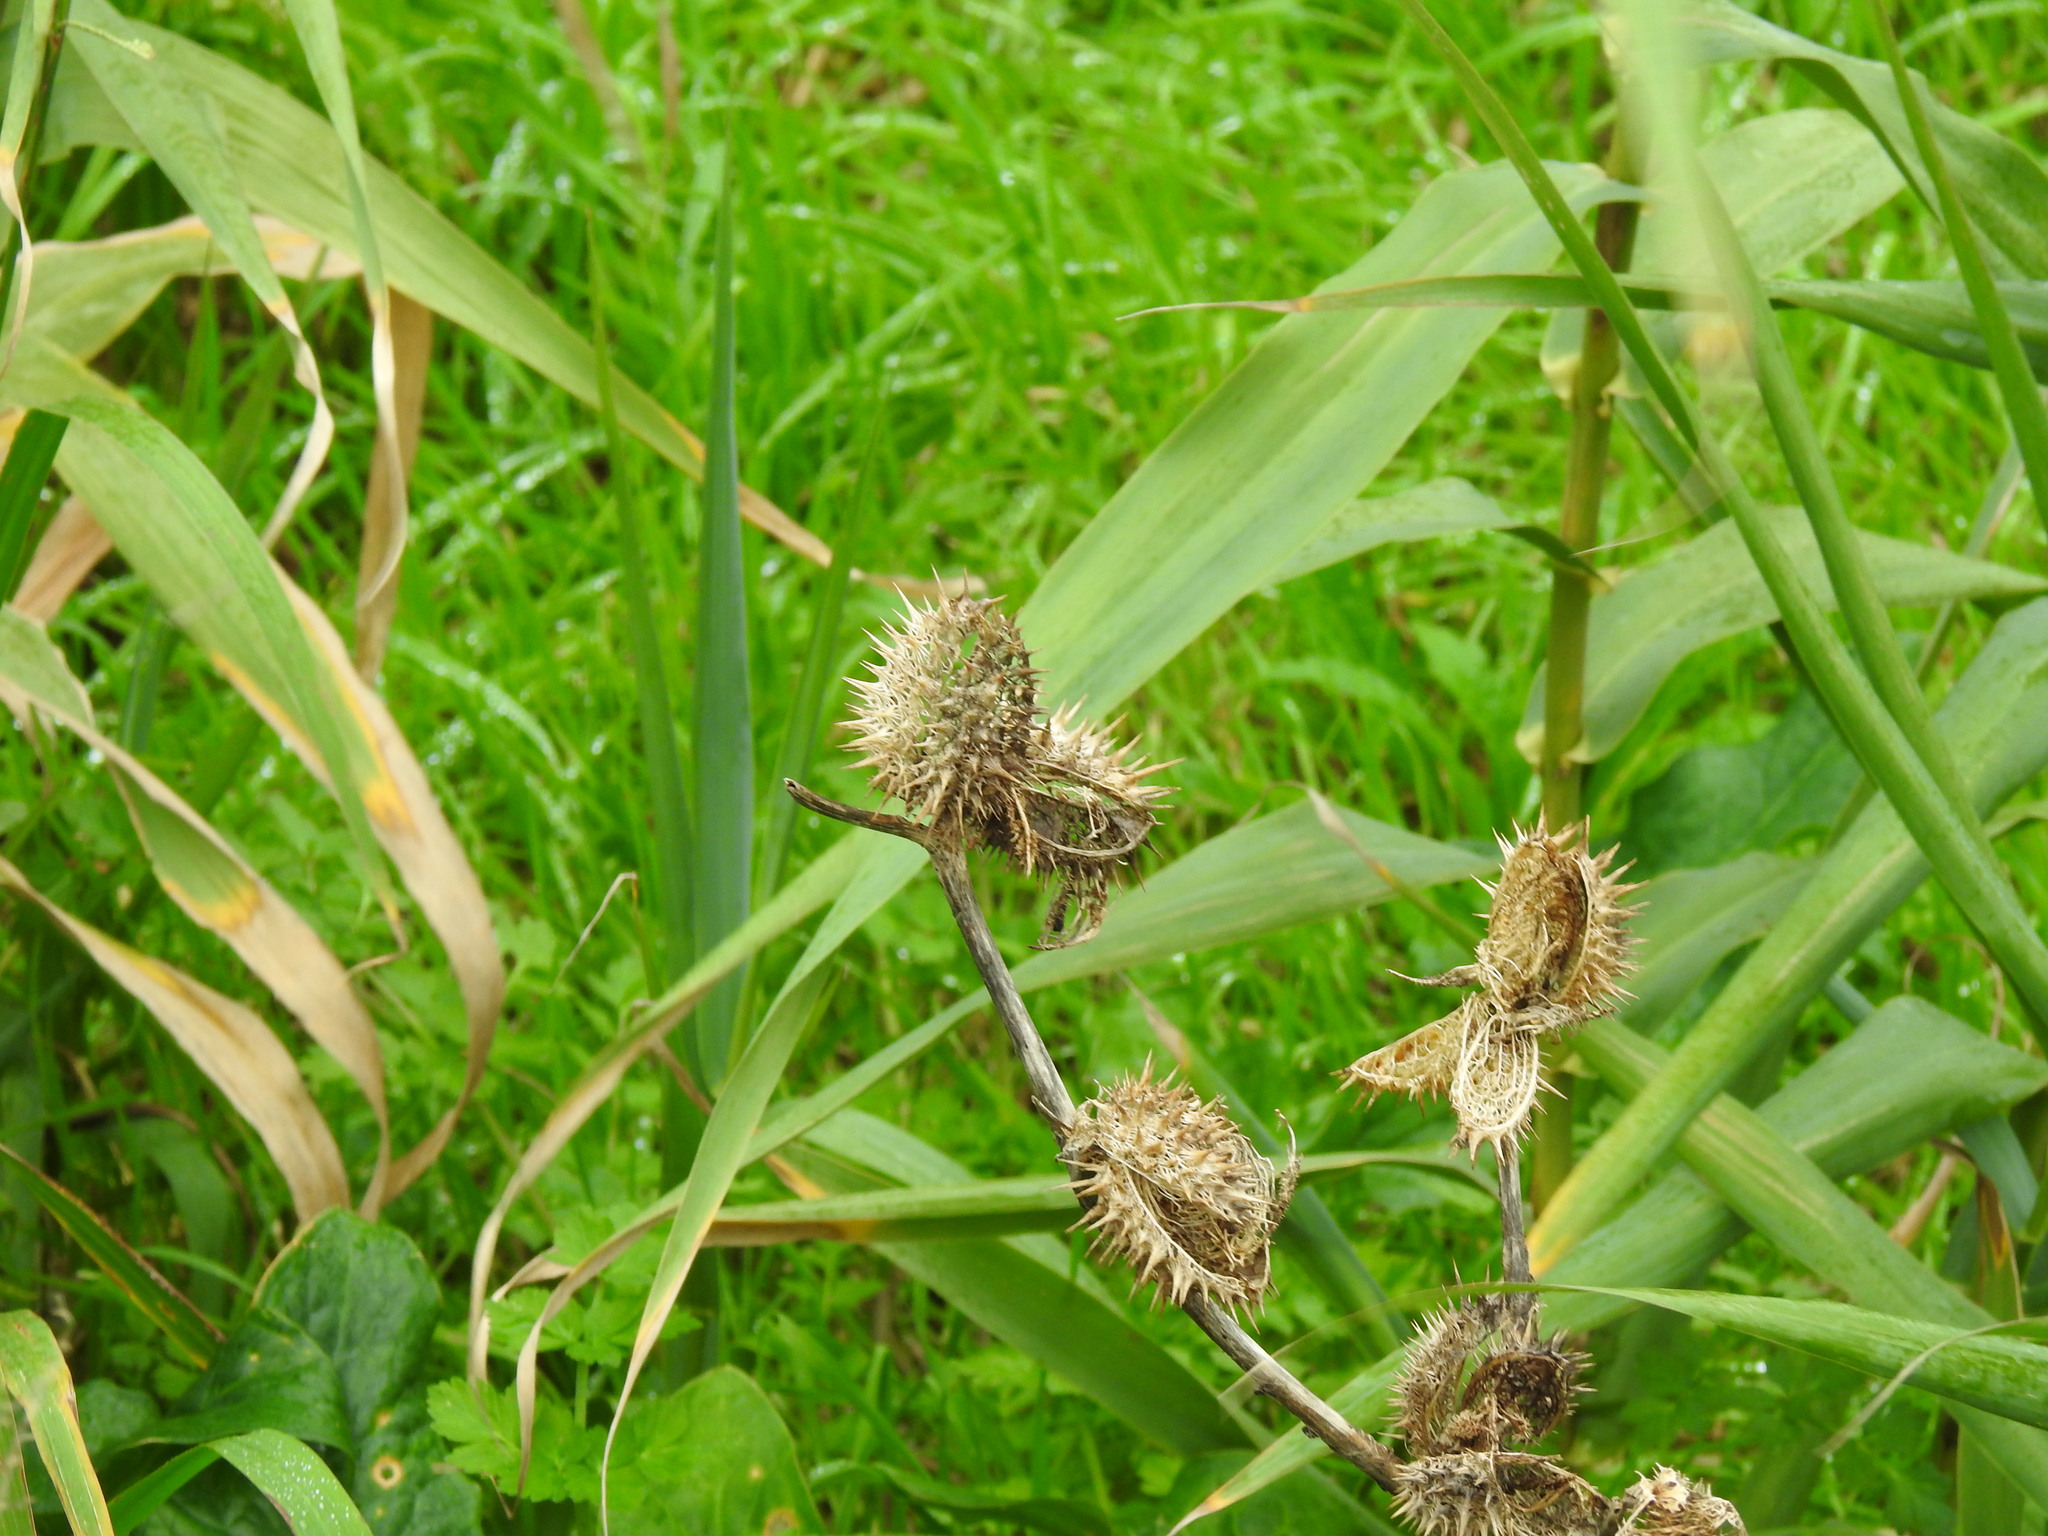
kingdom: Plantae
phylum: Tracheophyta
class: Magnoliopsida
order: Solanales
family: Solanaceae
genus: Datura
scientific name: Datura stramonium
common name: Thorn-apple
